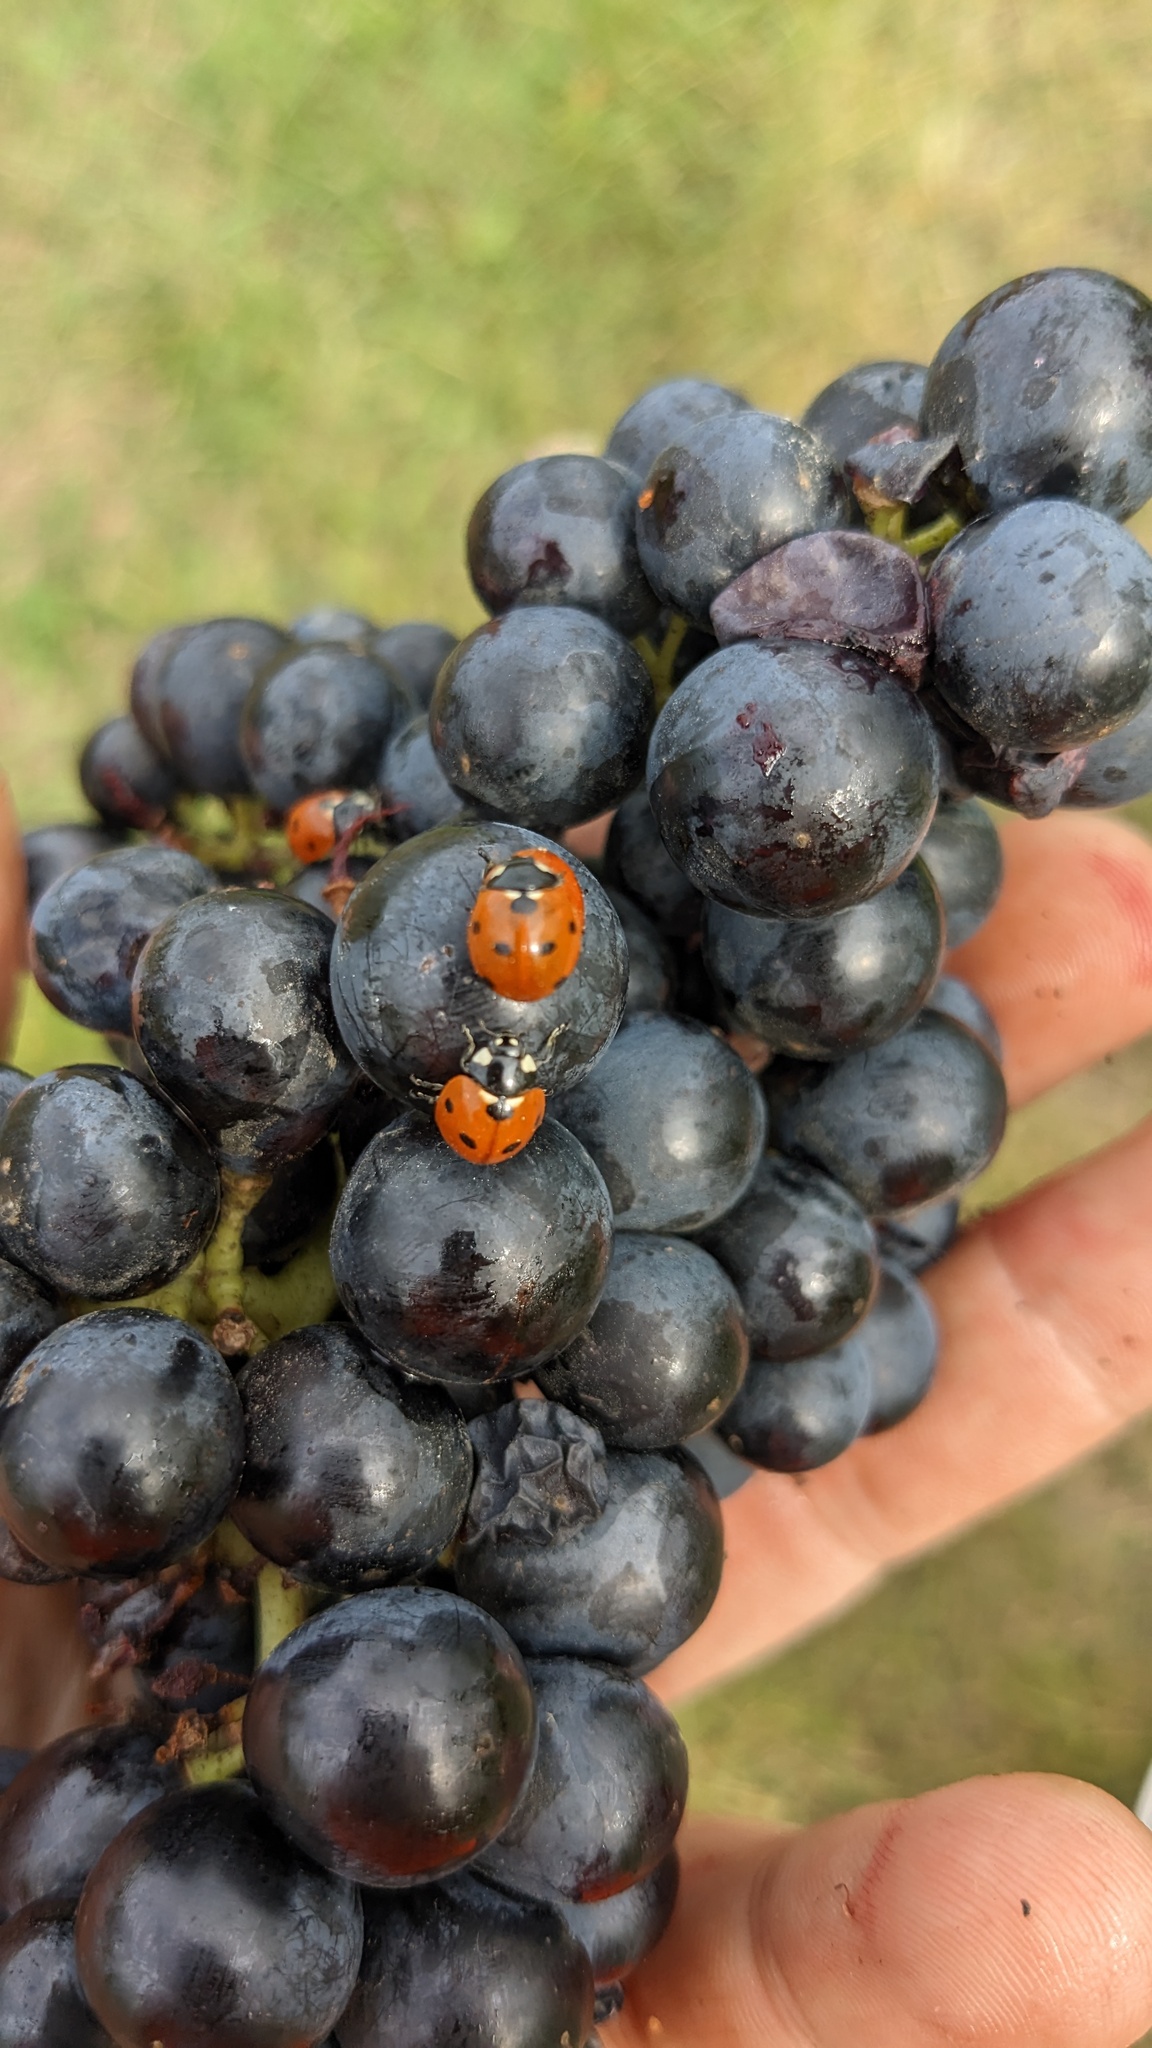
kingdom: Animalia
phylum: Arthropoda
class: Insecta
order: Coleoptera
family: Coccinellidae
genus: Coccinella
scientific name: Coccinella septempunctata
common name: Sevenspotted lady beetle
